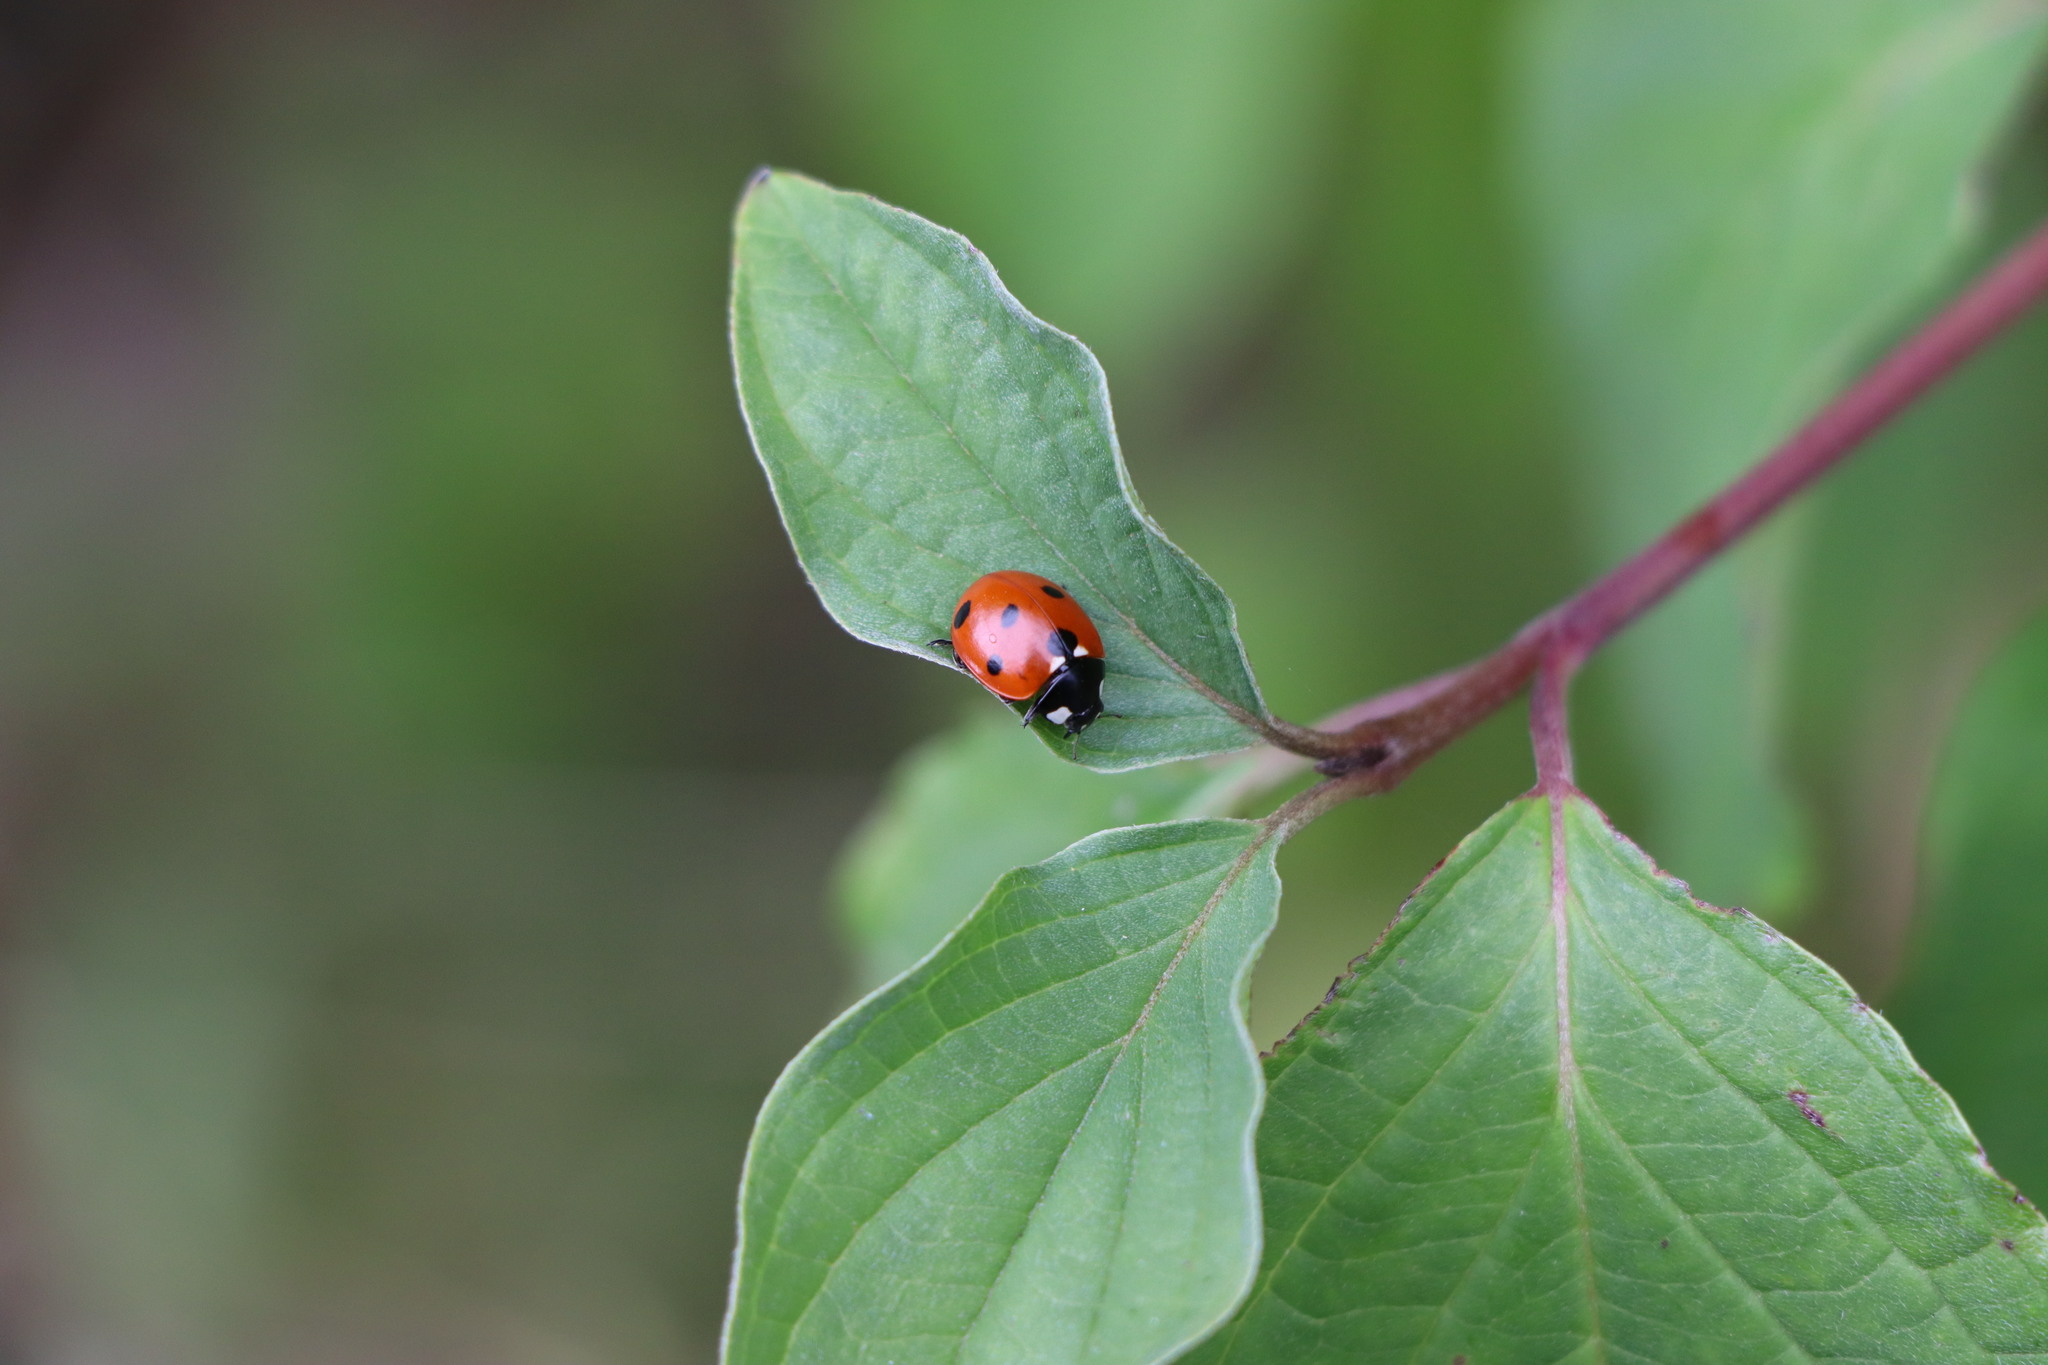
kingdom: Animalia
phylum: Arthropoda
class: Insecta
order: Coleoptera
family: Coccinellidae
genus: Coccinella
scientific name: Coccinella septempunctata
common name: Sevenspotted lady beetle
